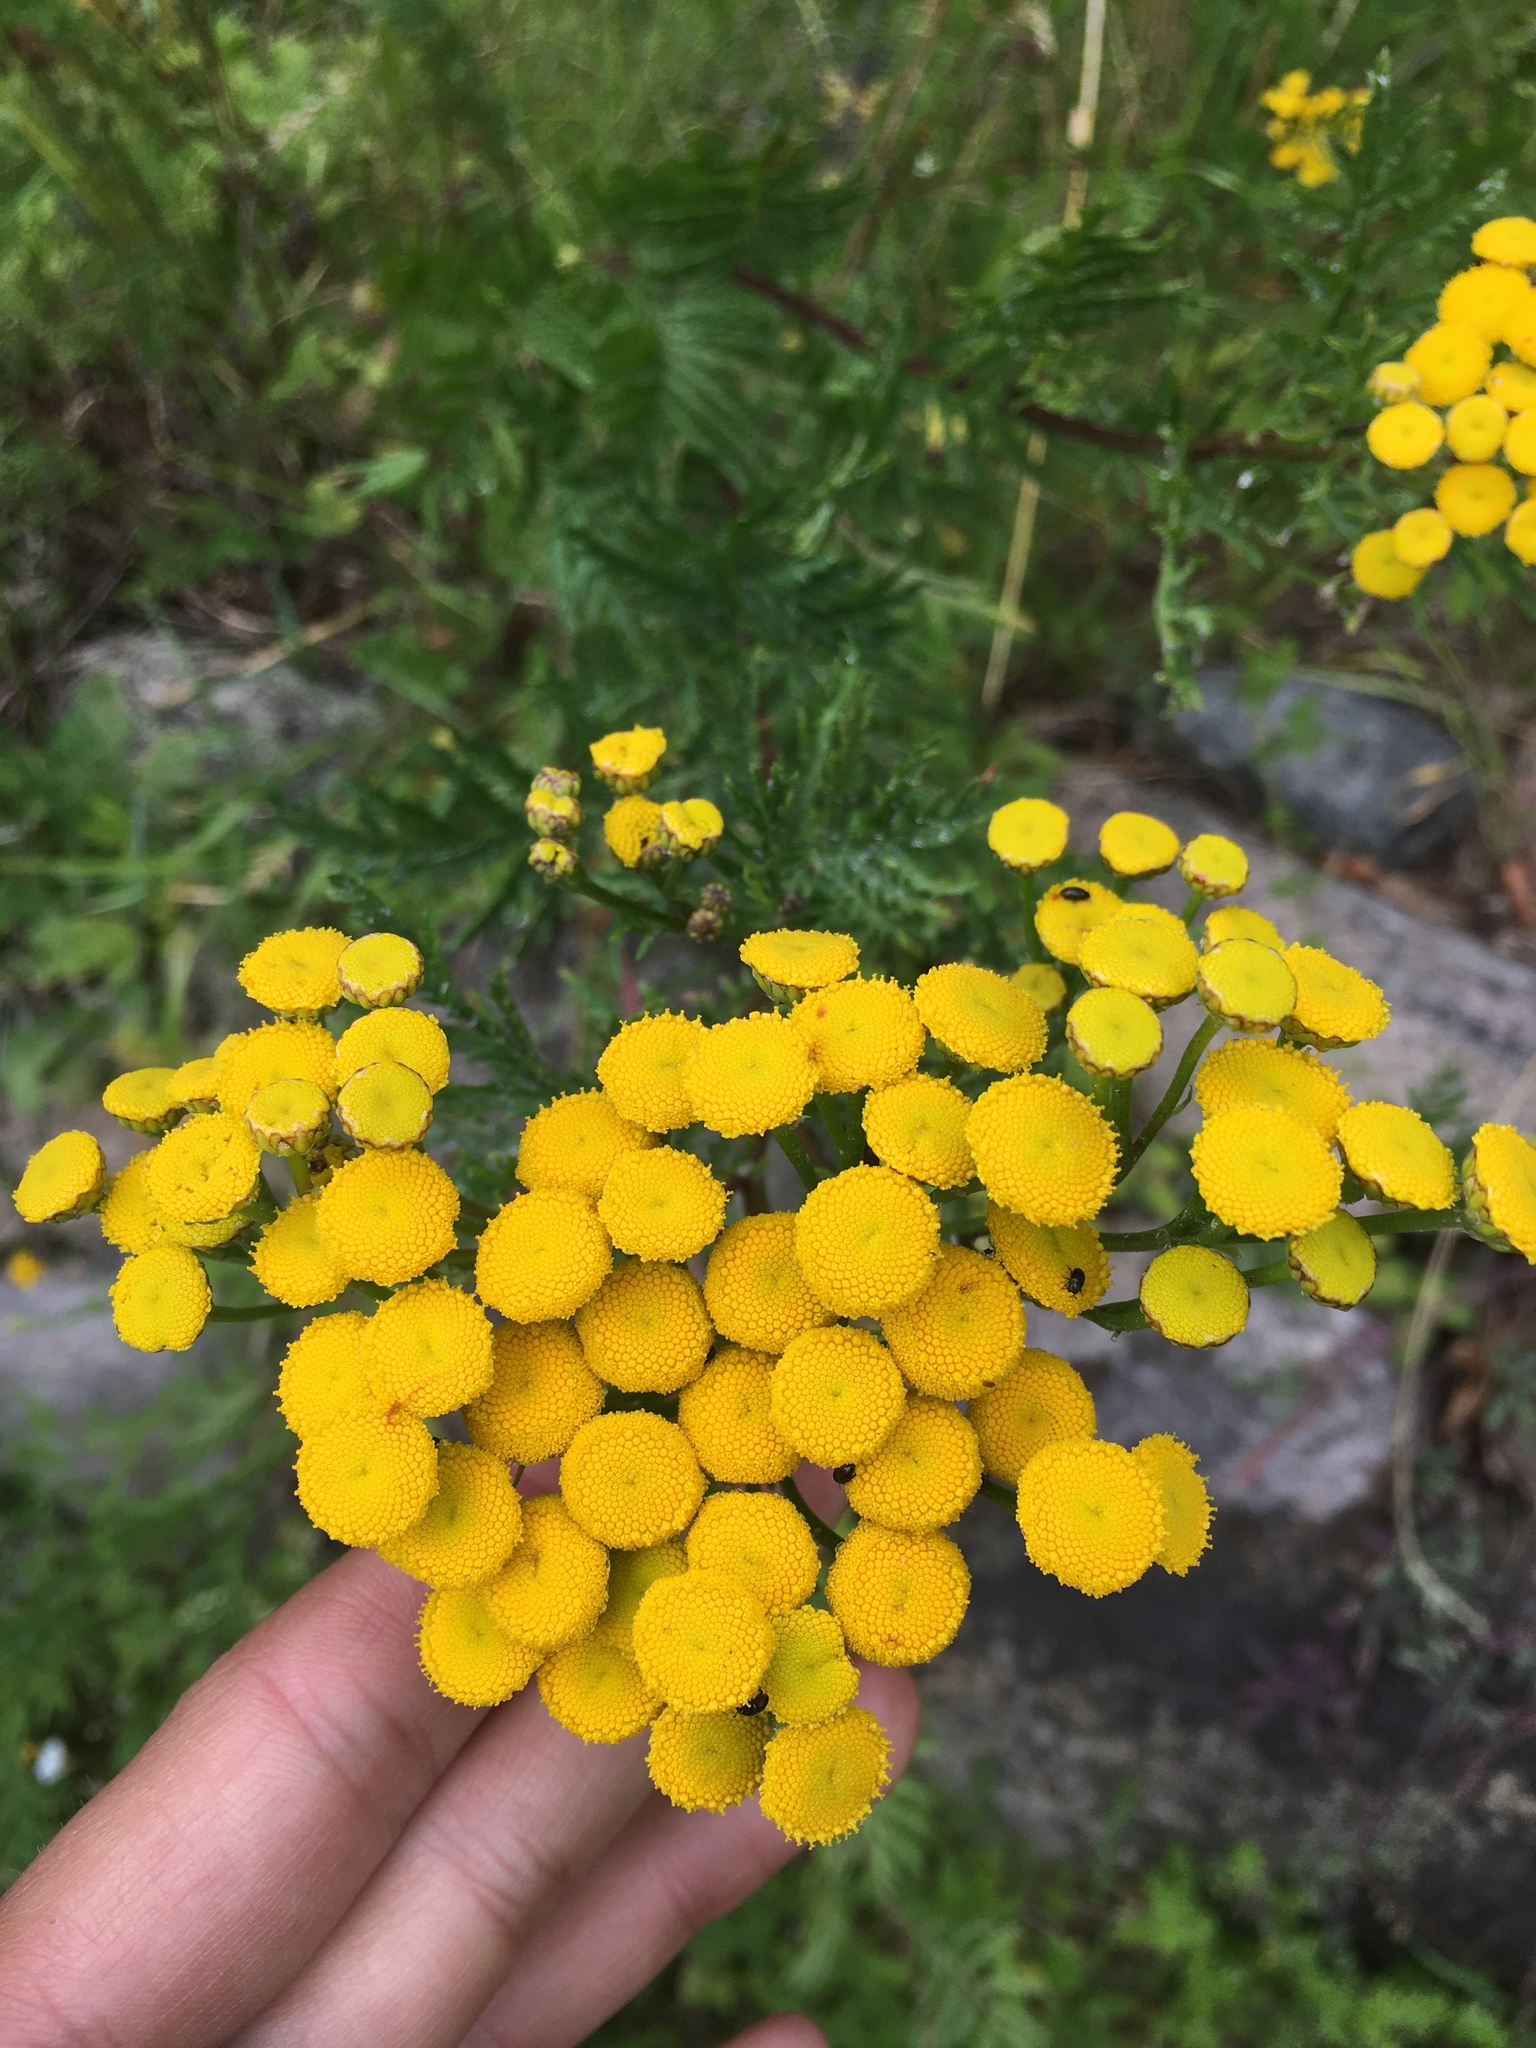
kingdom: Plantae
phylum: Tracheophyta
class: Magnoliopsida
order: Asterales
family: Asteraceae
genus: Tanacetum
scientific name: Tanacetum vulgare
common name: Common tansy
